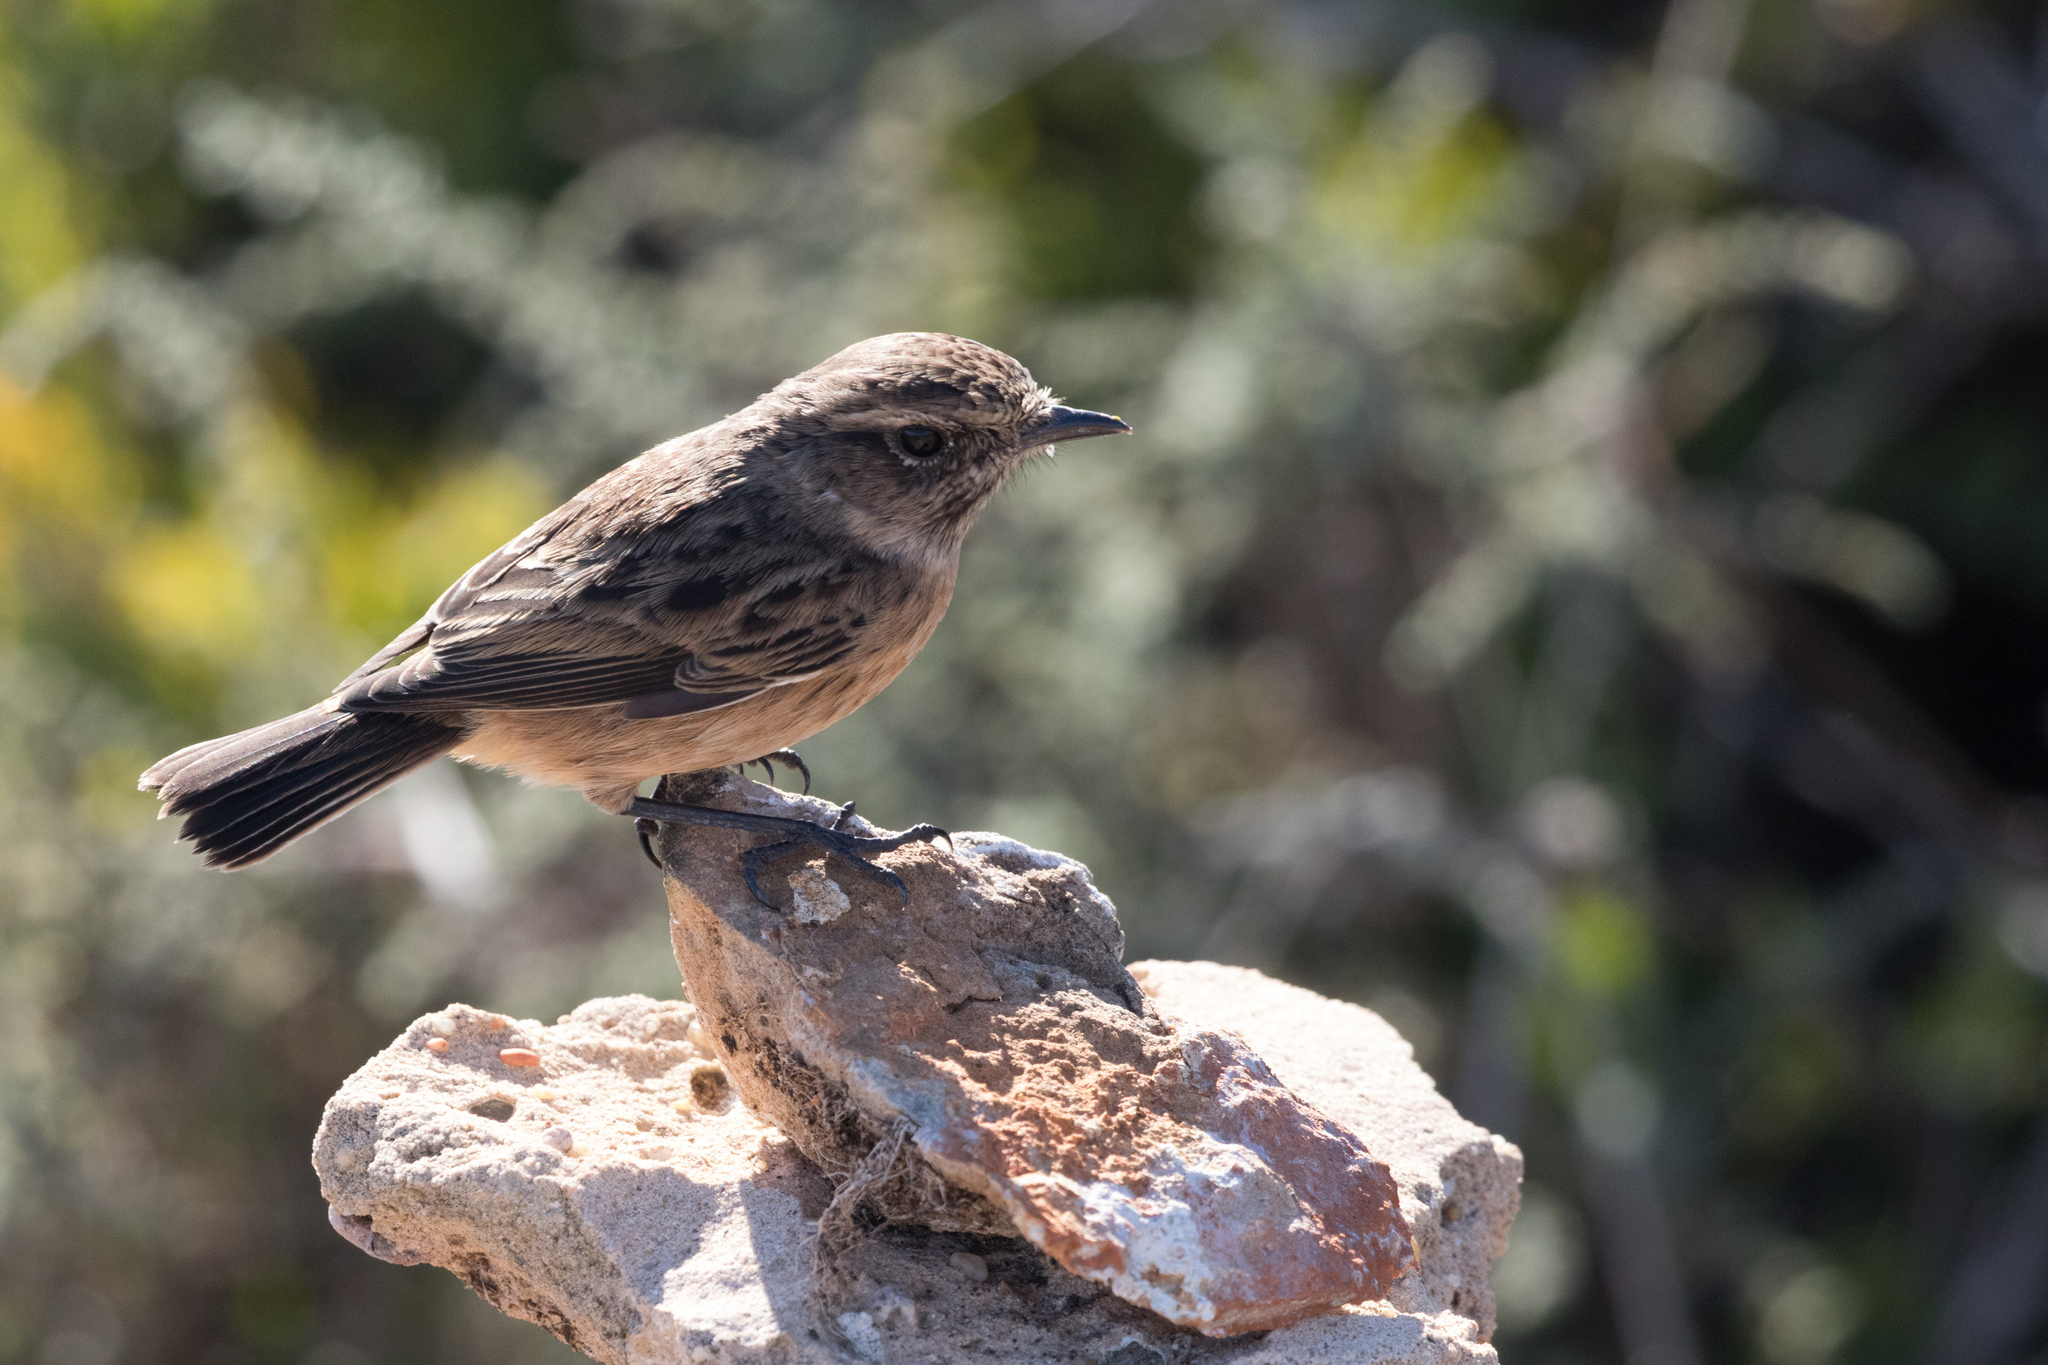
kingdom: Animalia
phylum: Chordata
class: Aves
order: Passeriformes
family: Muscicapidae
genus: Saxicola
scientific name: Saxicola rubicola
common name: European stonechat
